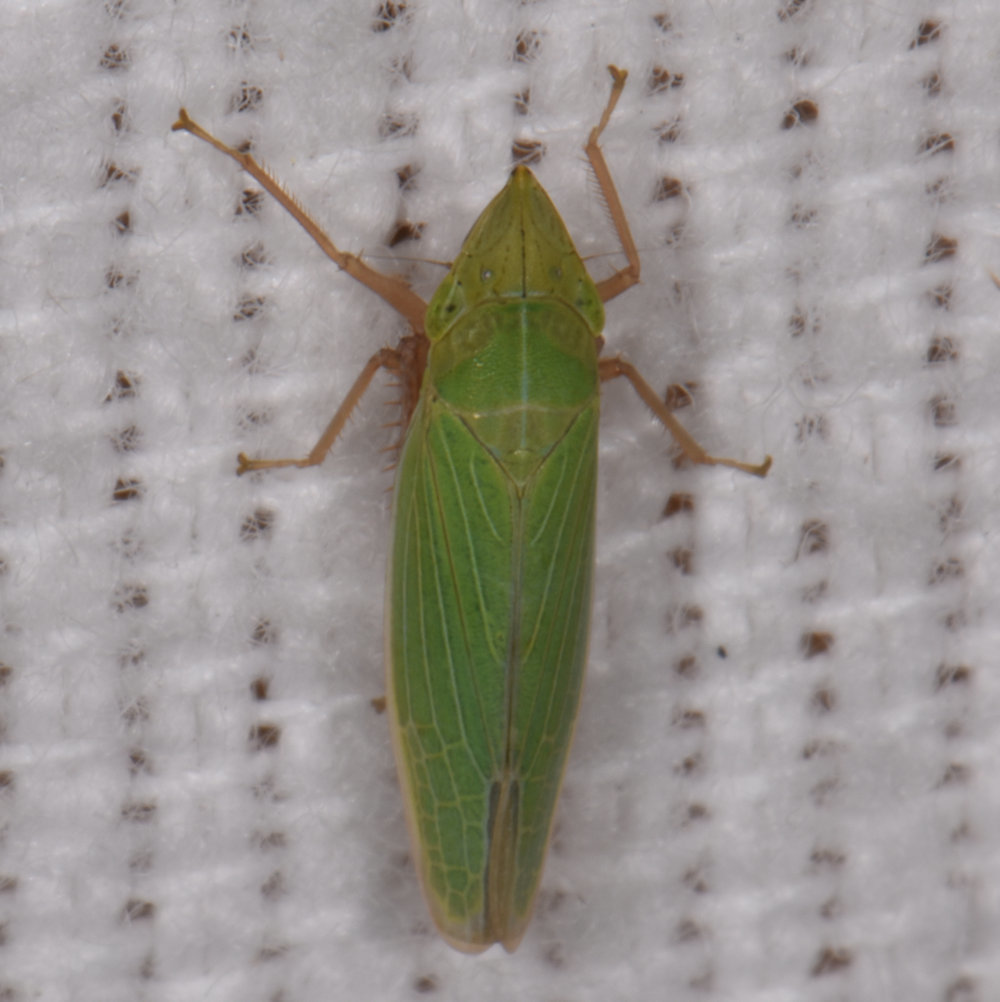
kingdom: Animalia
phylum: Arthropoda
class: Insecta
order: Hemiptera
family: Cicadellidae
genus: Draeculacephala
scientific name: Draeculacephala robinsoni
